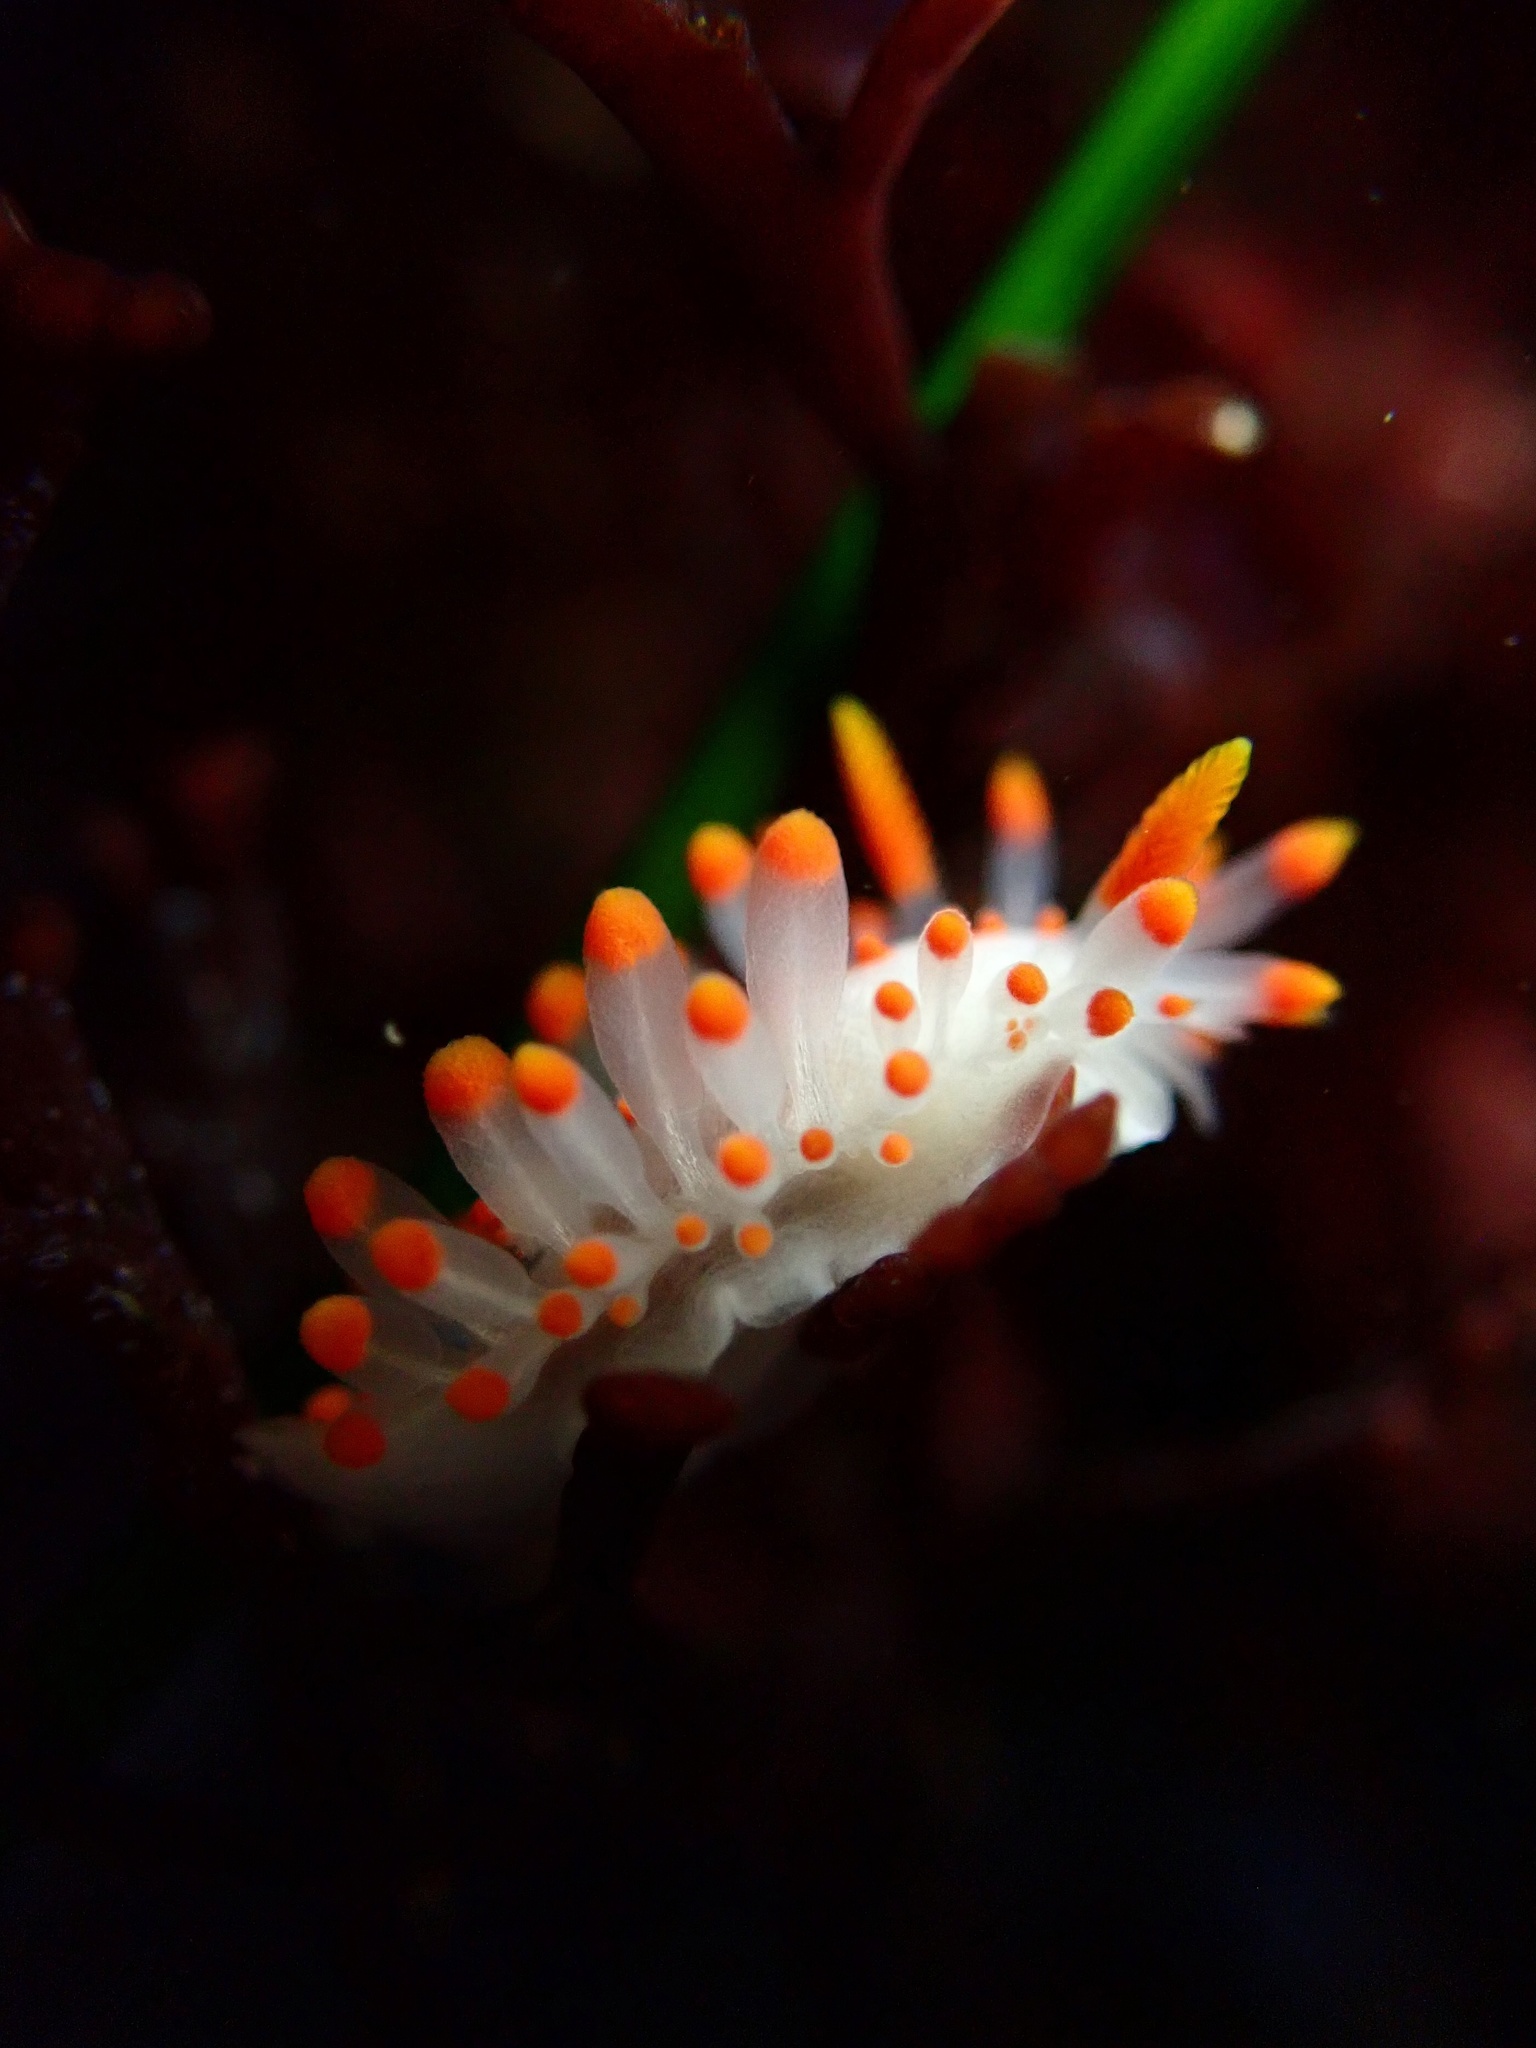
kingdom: Animalia
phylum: Mollusca
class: Gastropoda
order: Nudibranchia
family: Polyceridae
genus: Limacia
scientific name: Limacia mcdonaldi
